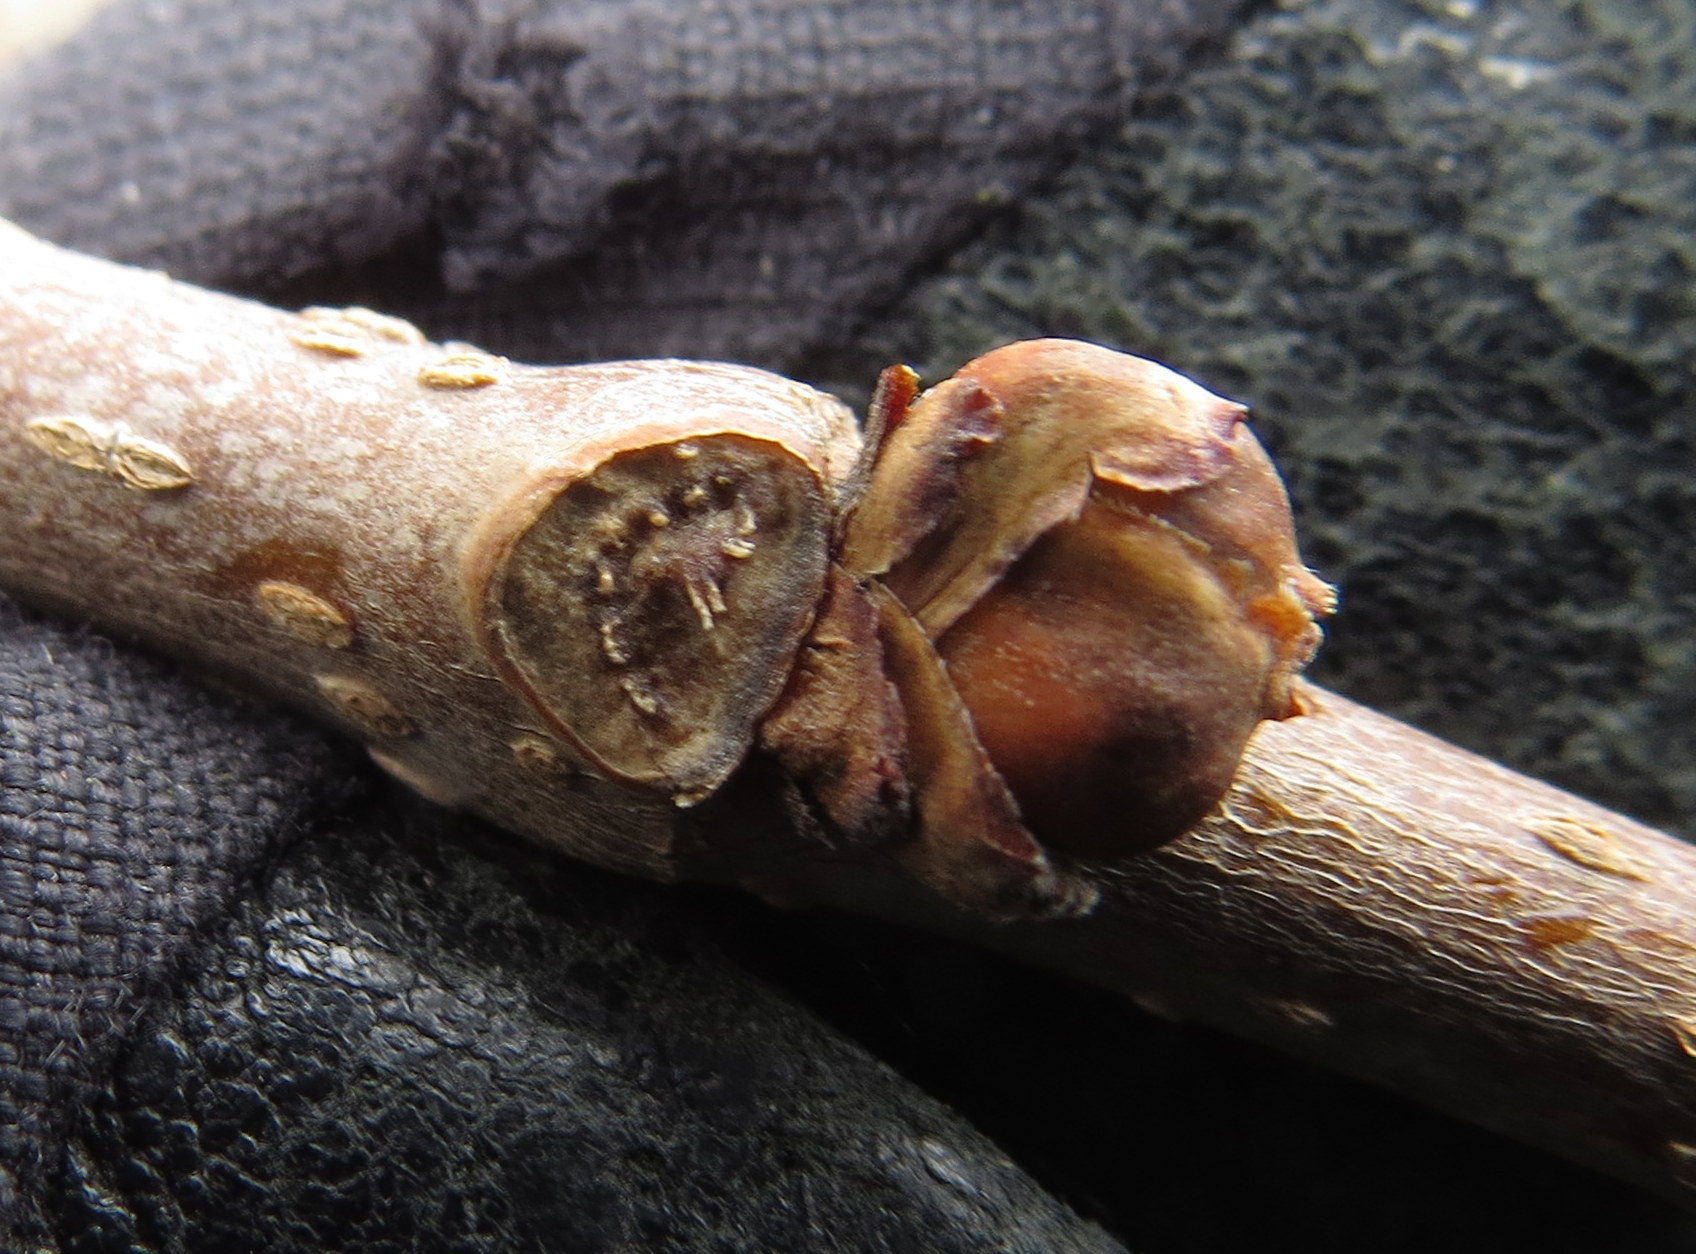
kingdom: Plantae
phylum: Tracheophyta
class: Magnoliopsida
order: Rosales
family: Moraceae
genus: Morus
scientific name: Morus alba
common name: White mulberry
